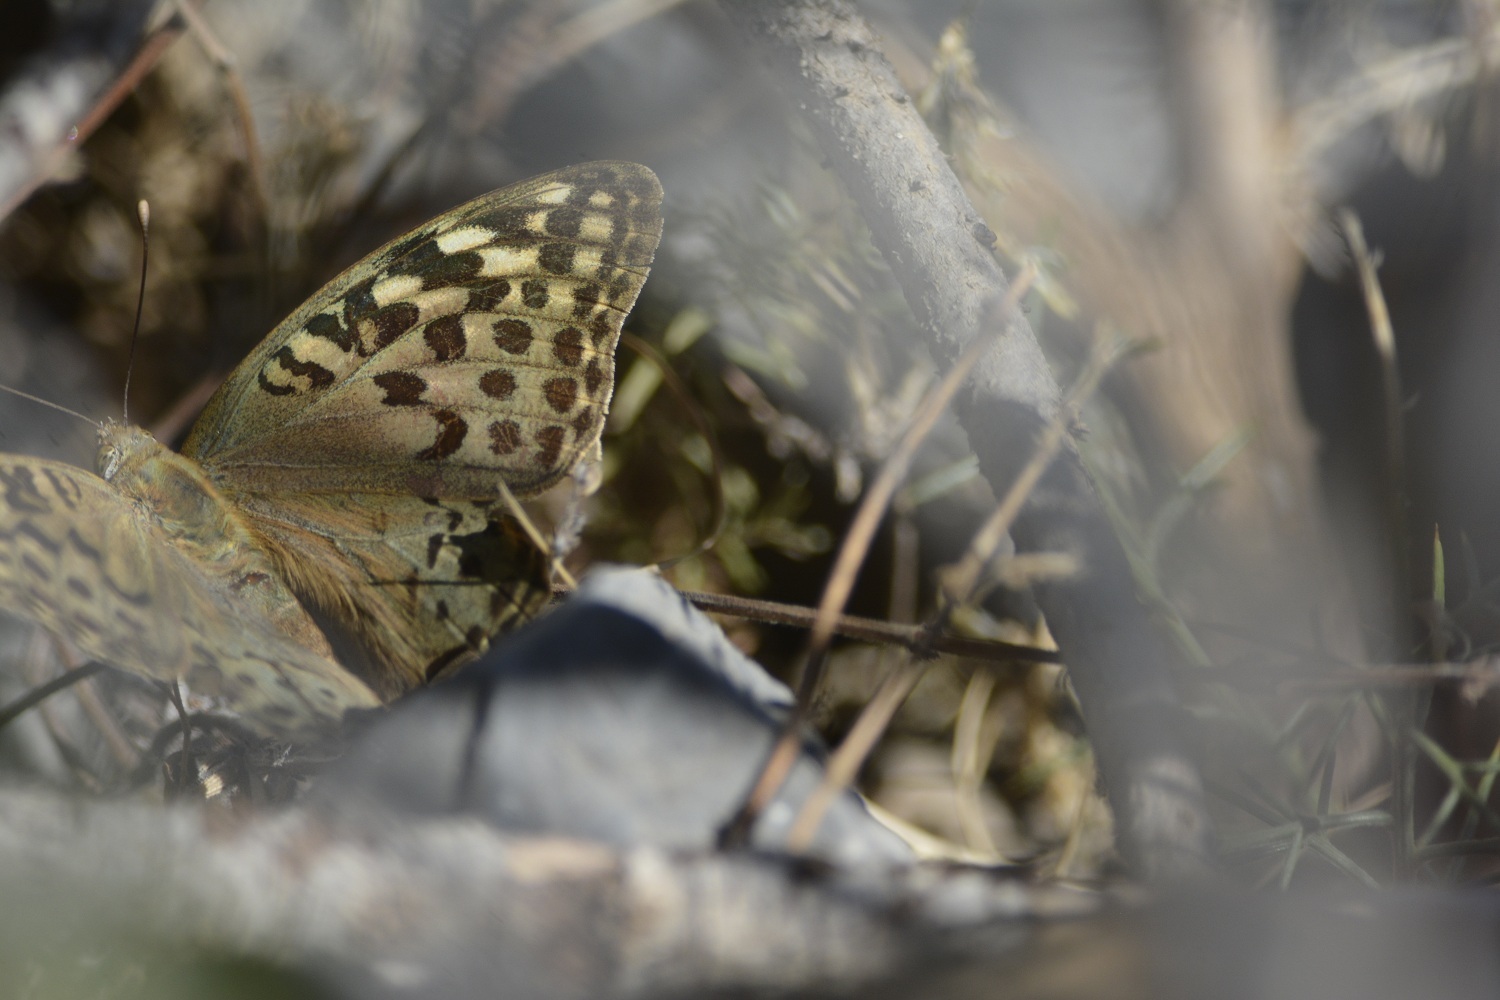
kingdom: Animalia
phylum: Arthropoda
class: Insecta
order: Lepidoptera
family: Nymphalidae
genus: Damora
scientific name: Damora pandora
